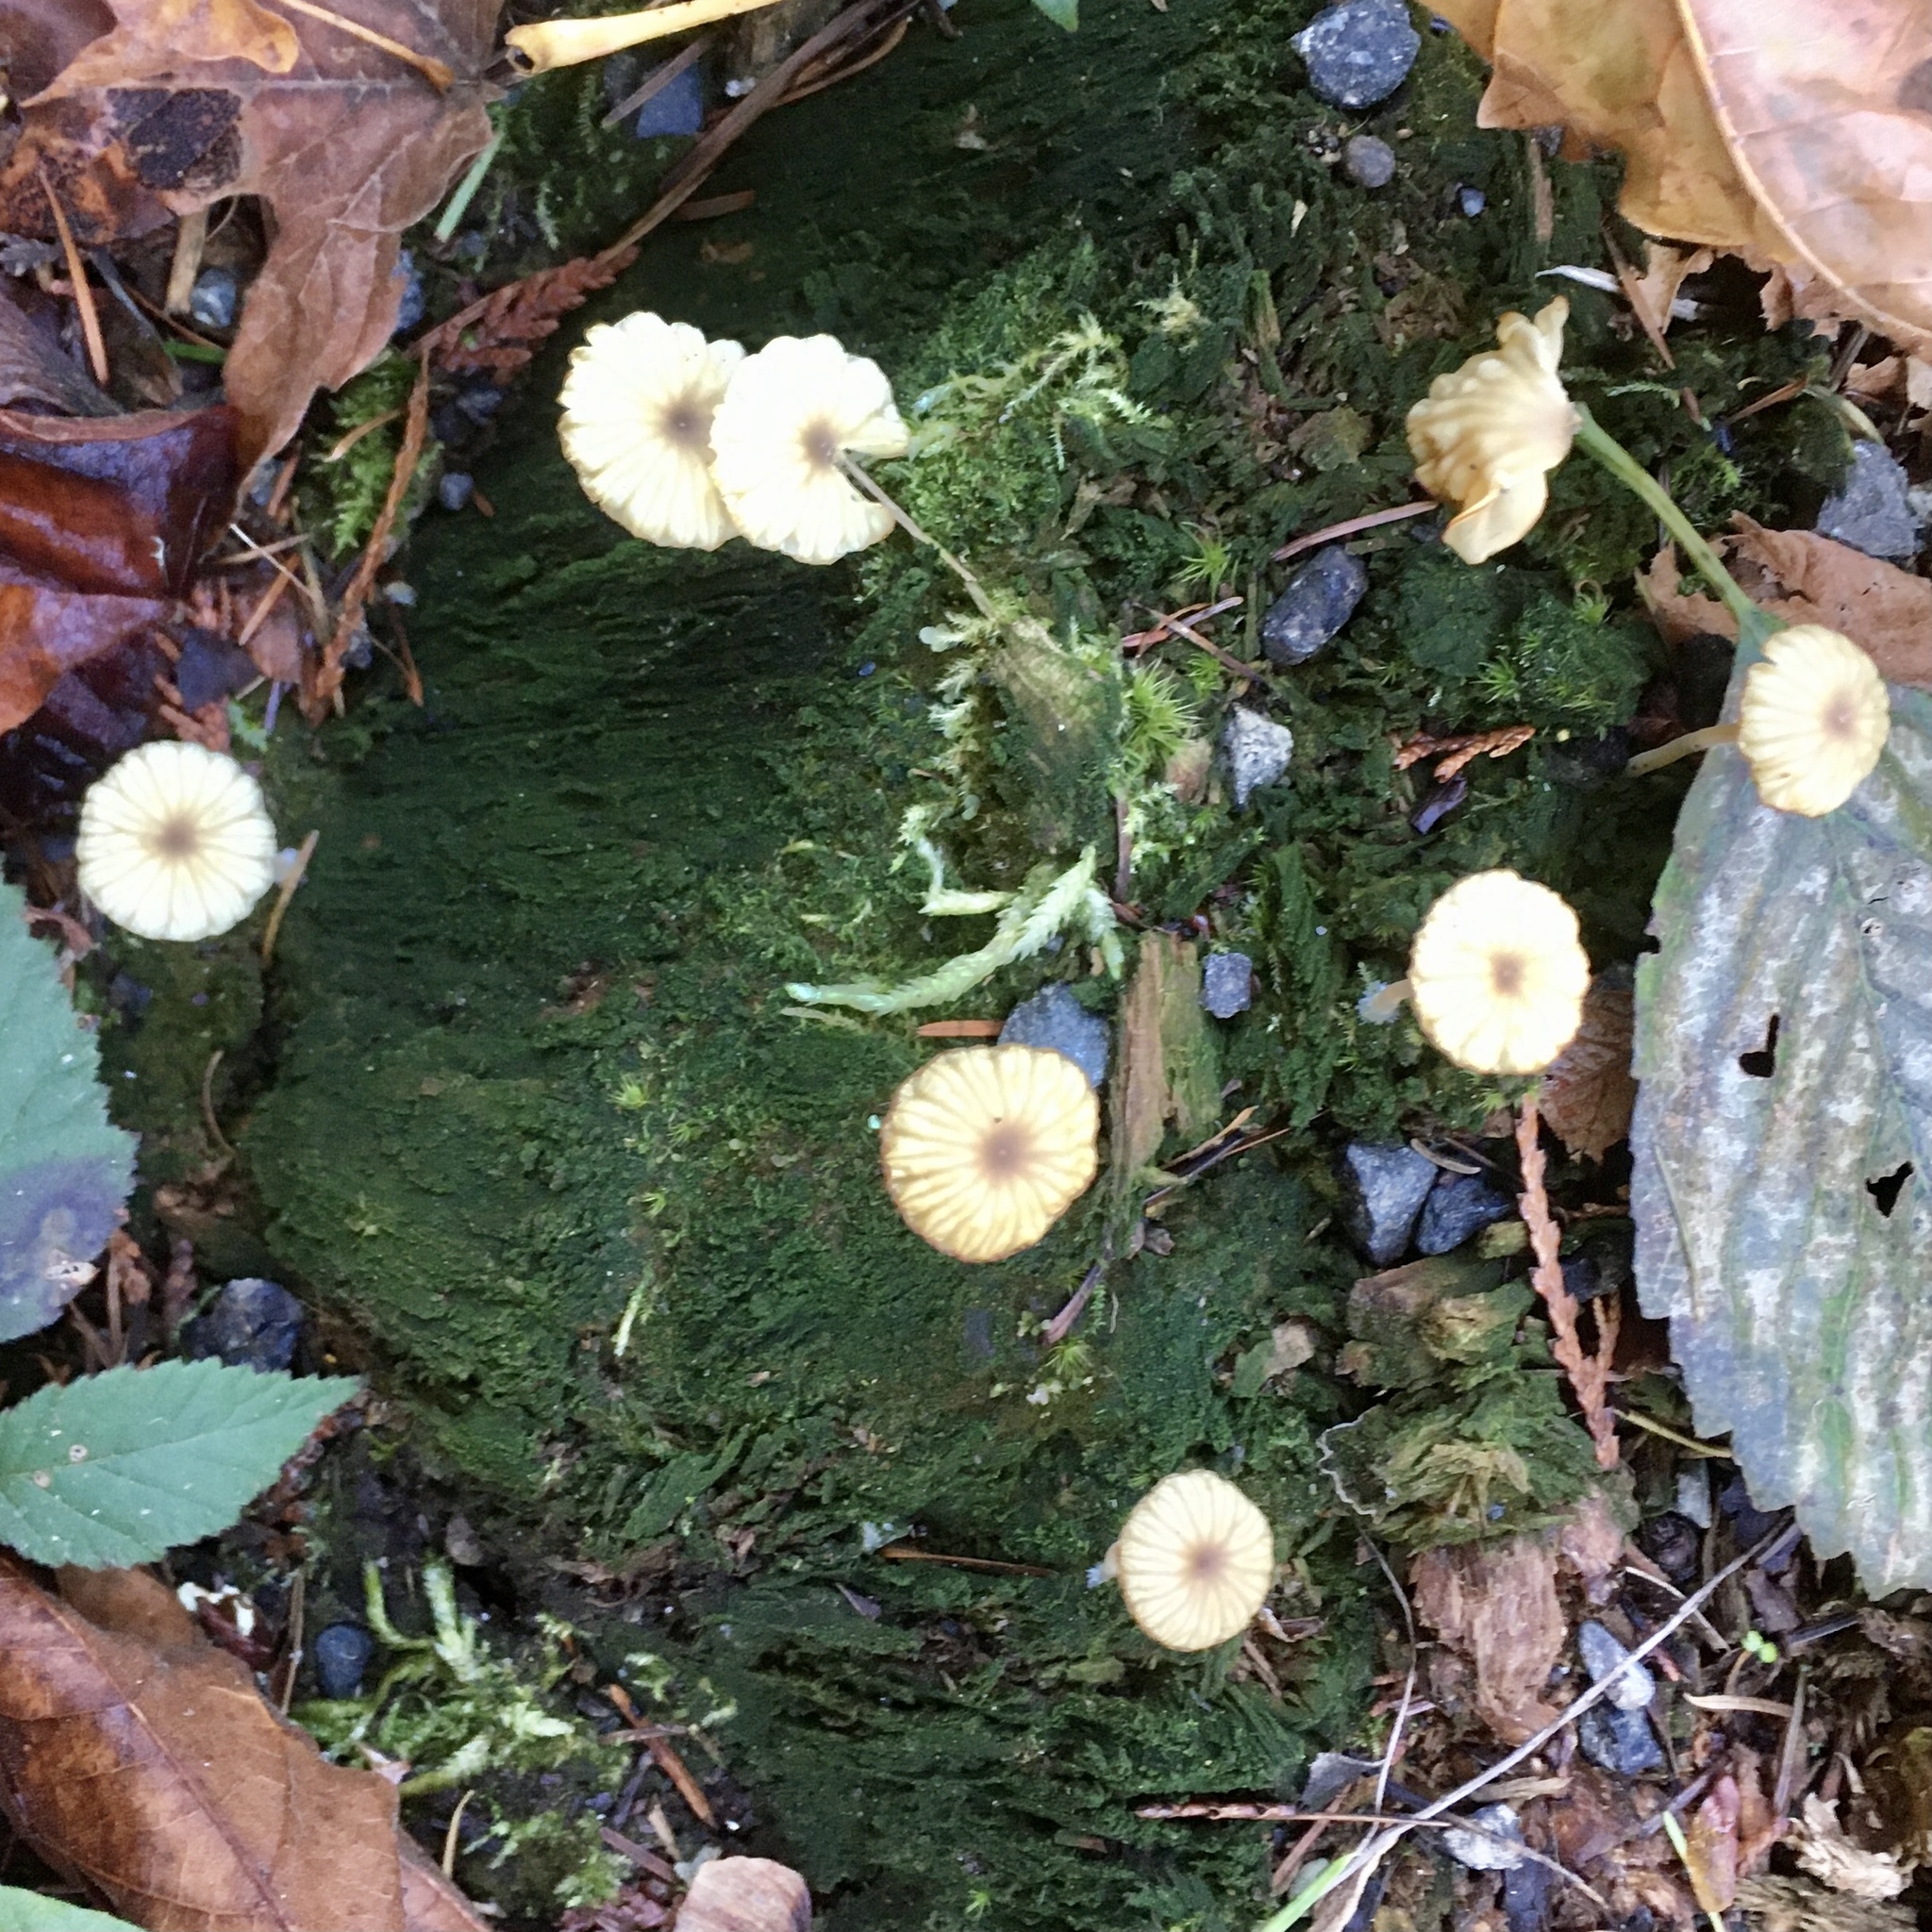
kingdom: Fungi
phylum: Basidiomycota
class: Agaricomycetes
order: Agaricales
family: Hygrophoraceae
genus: Lichenomphalia
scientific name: Lichenomphalia
